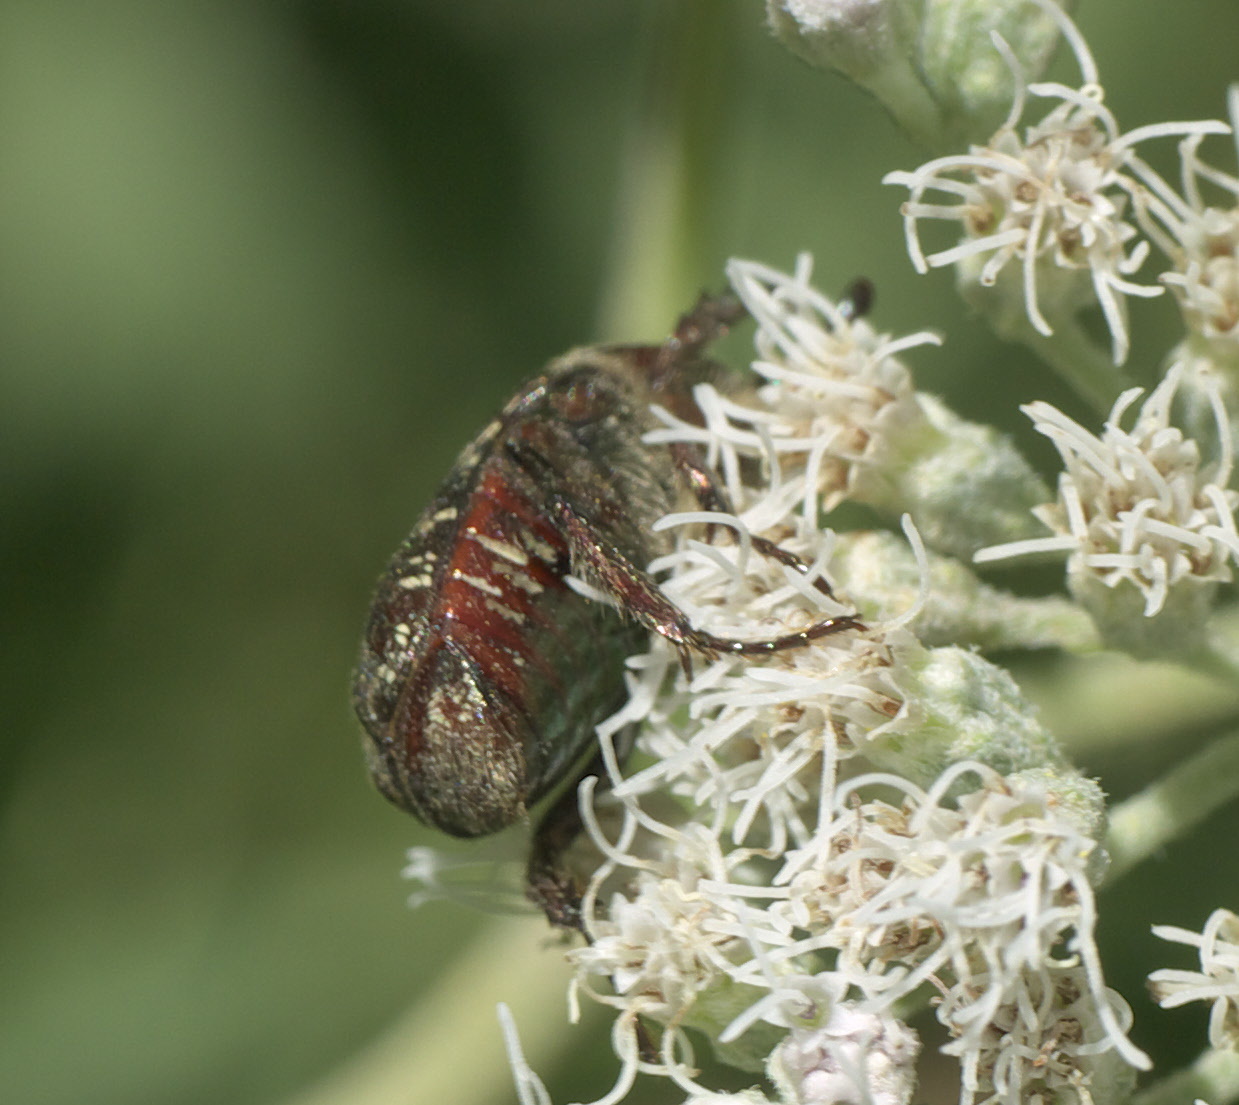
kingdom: Animalia
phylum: Arthropoda
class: Insecta
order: Coleoptera
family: Scarabaeidae
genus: Euphoria
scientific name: Euphoria sepulcralis
